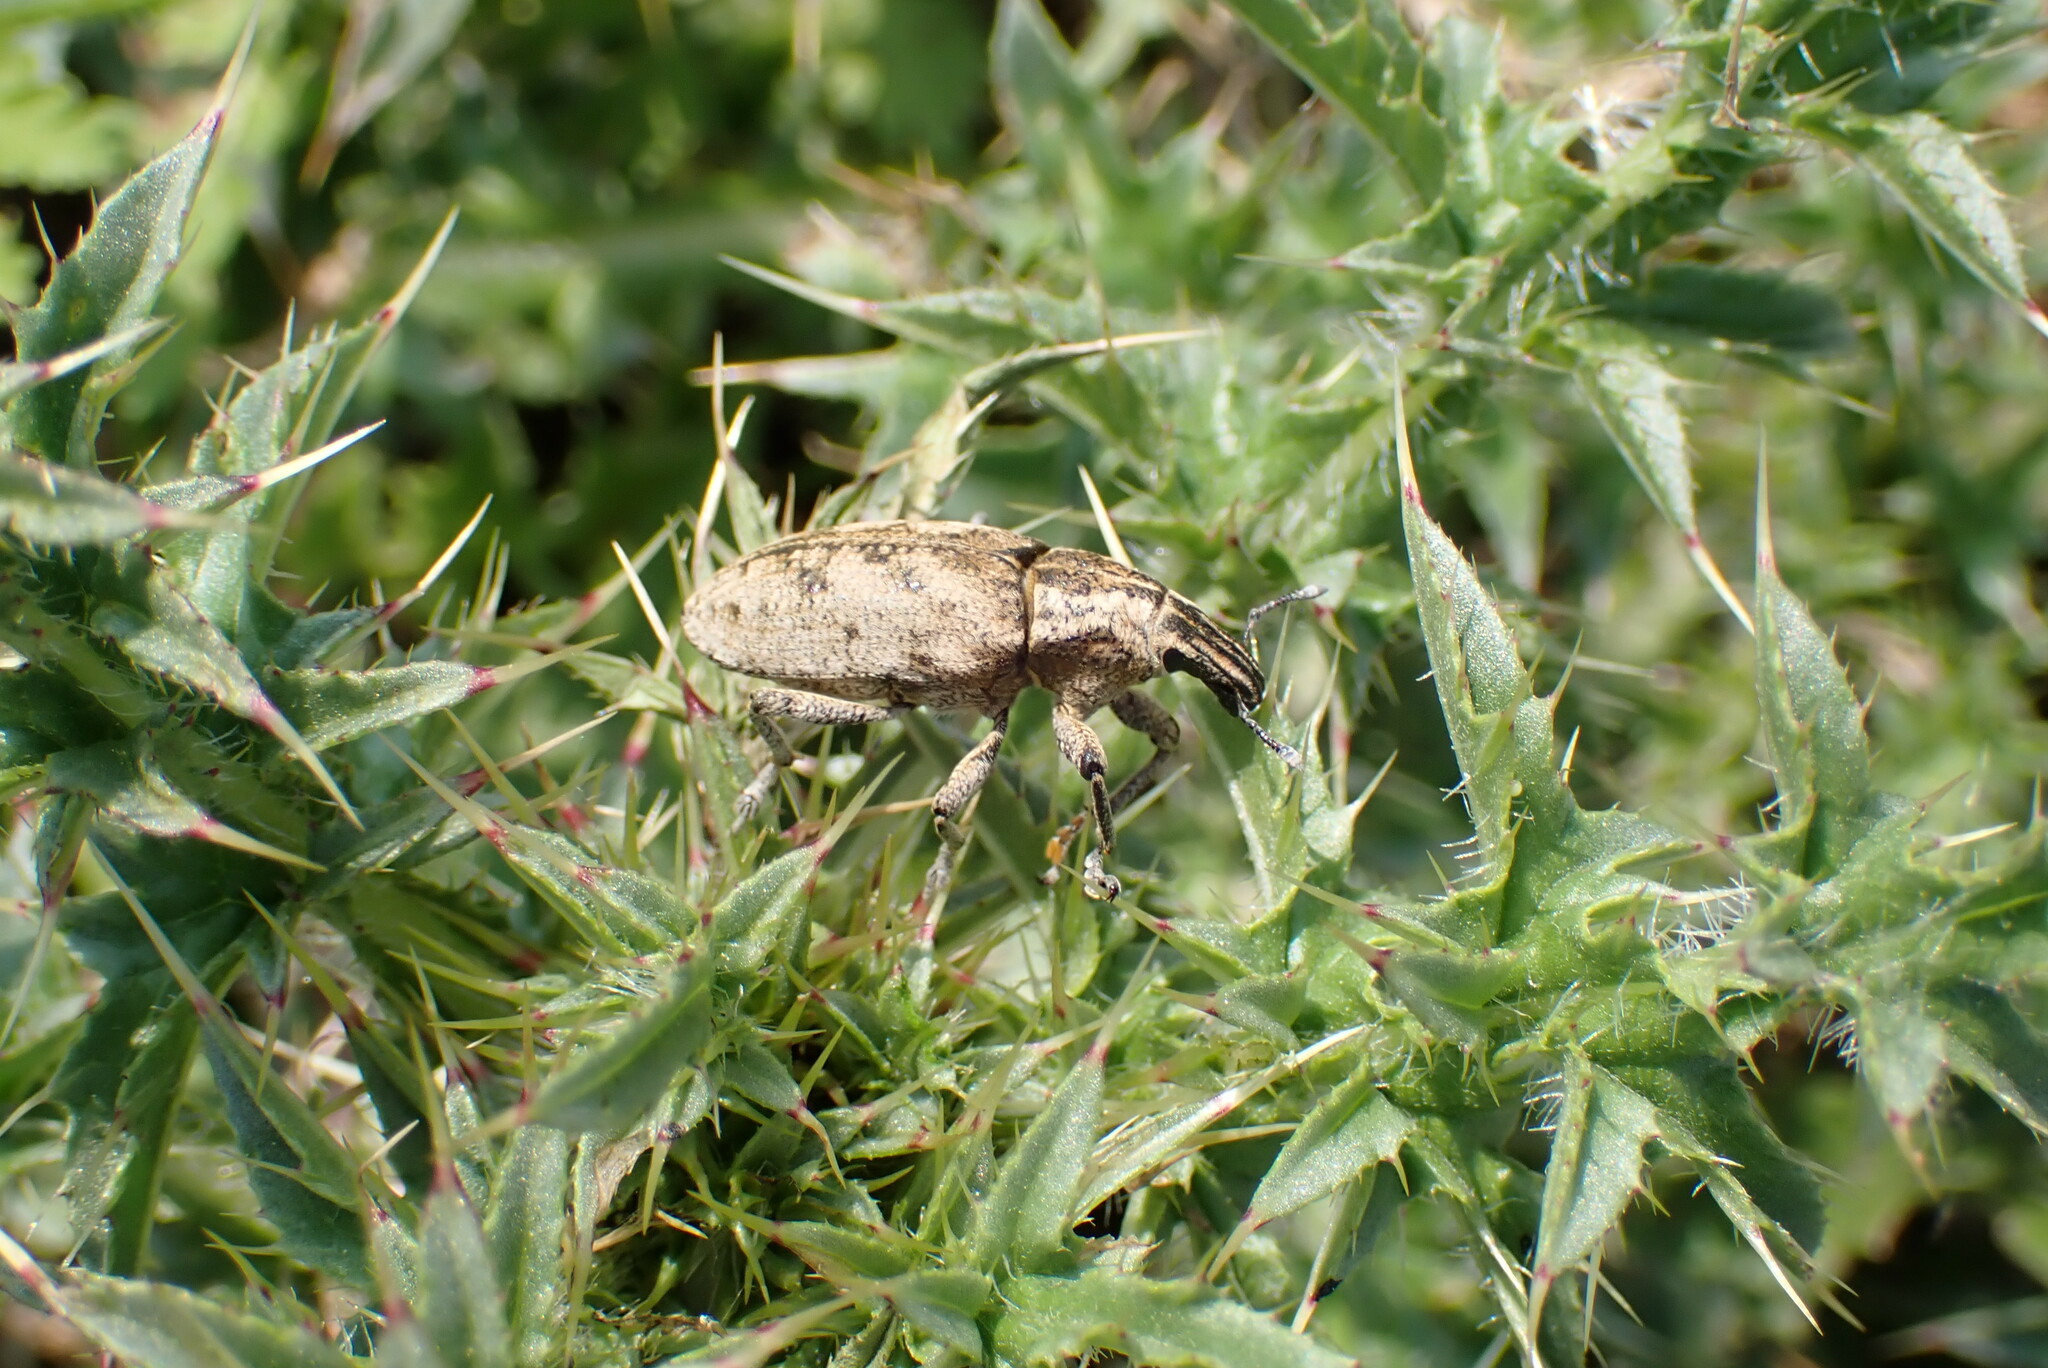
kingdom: Animalia
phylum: Arthropoda
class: Insecta
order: Coleoptera
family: Curculionidae
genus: Cleonis
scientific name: Cleonis pigra
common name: Large thistle weevil
